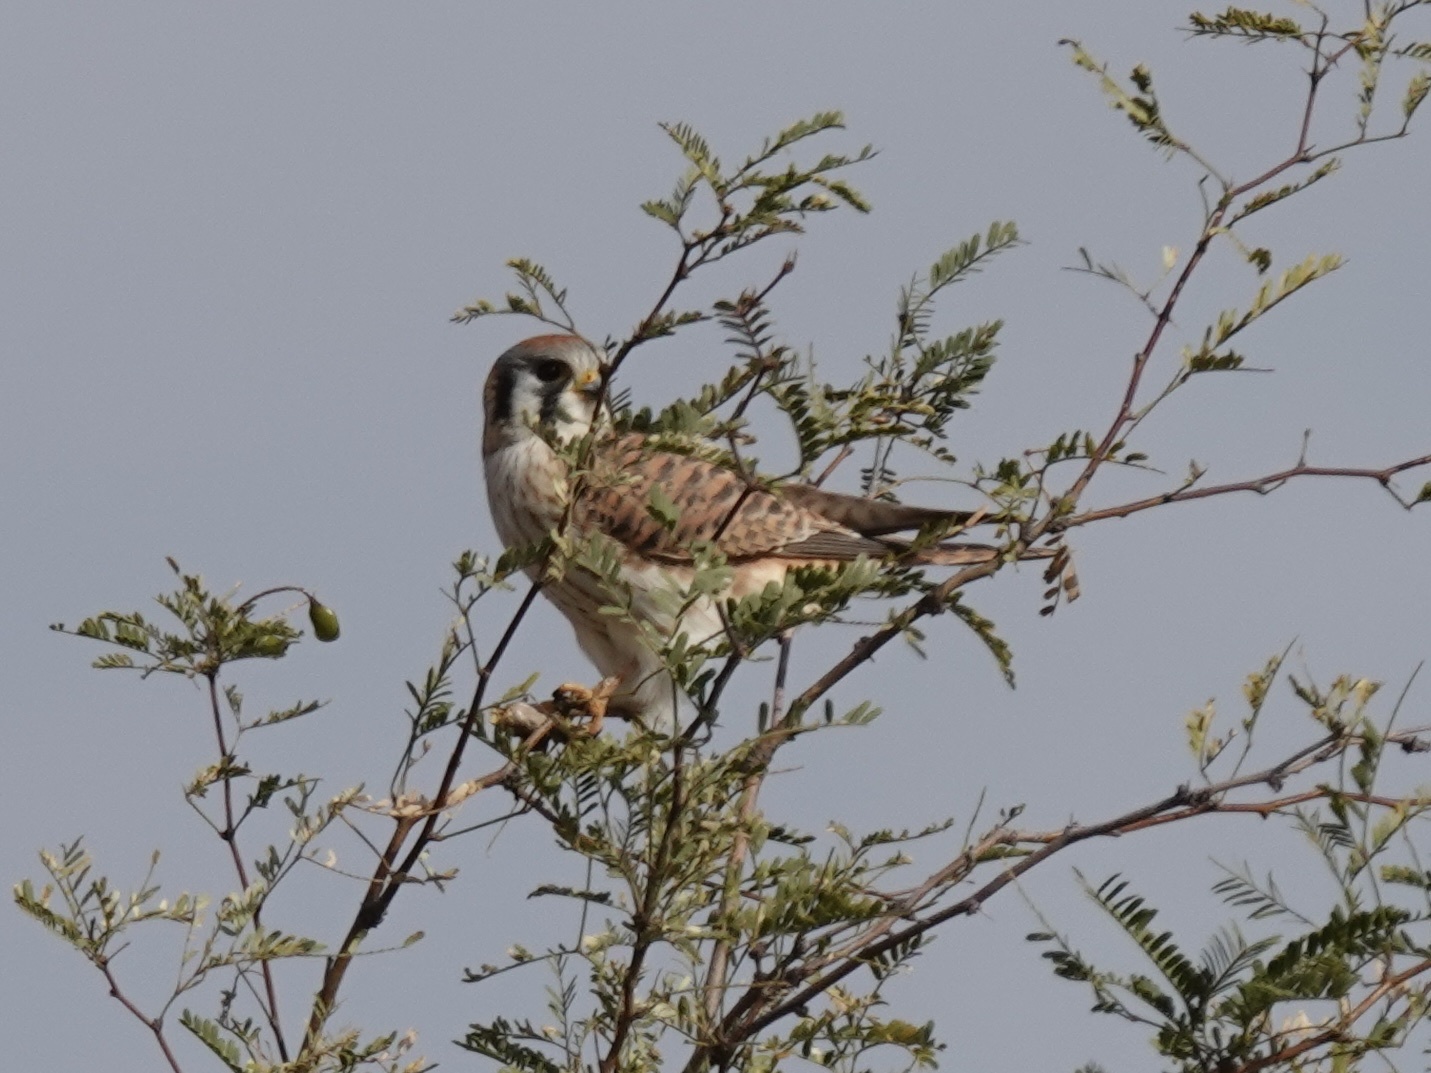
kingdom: Animalia
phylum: Chordata
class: Aves
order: Falconiformes
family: Falconidae
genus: Falco
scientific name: Falco sparverius
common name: American kestrel
